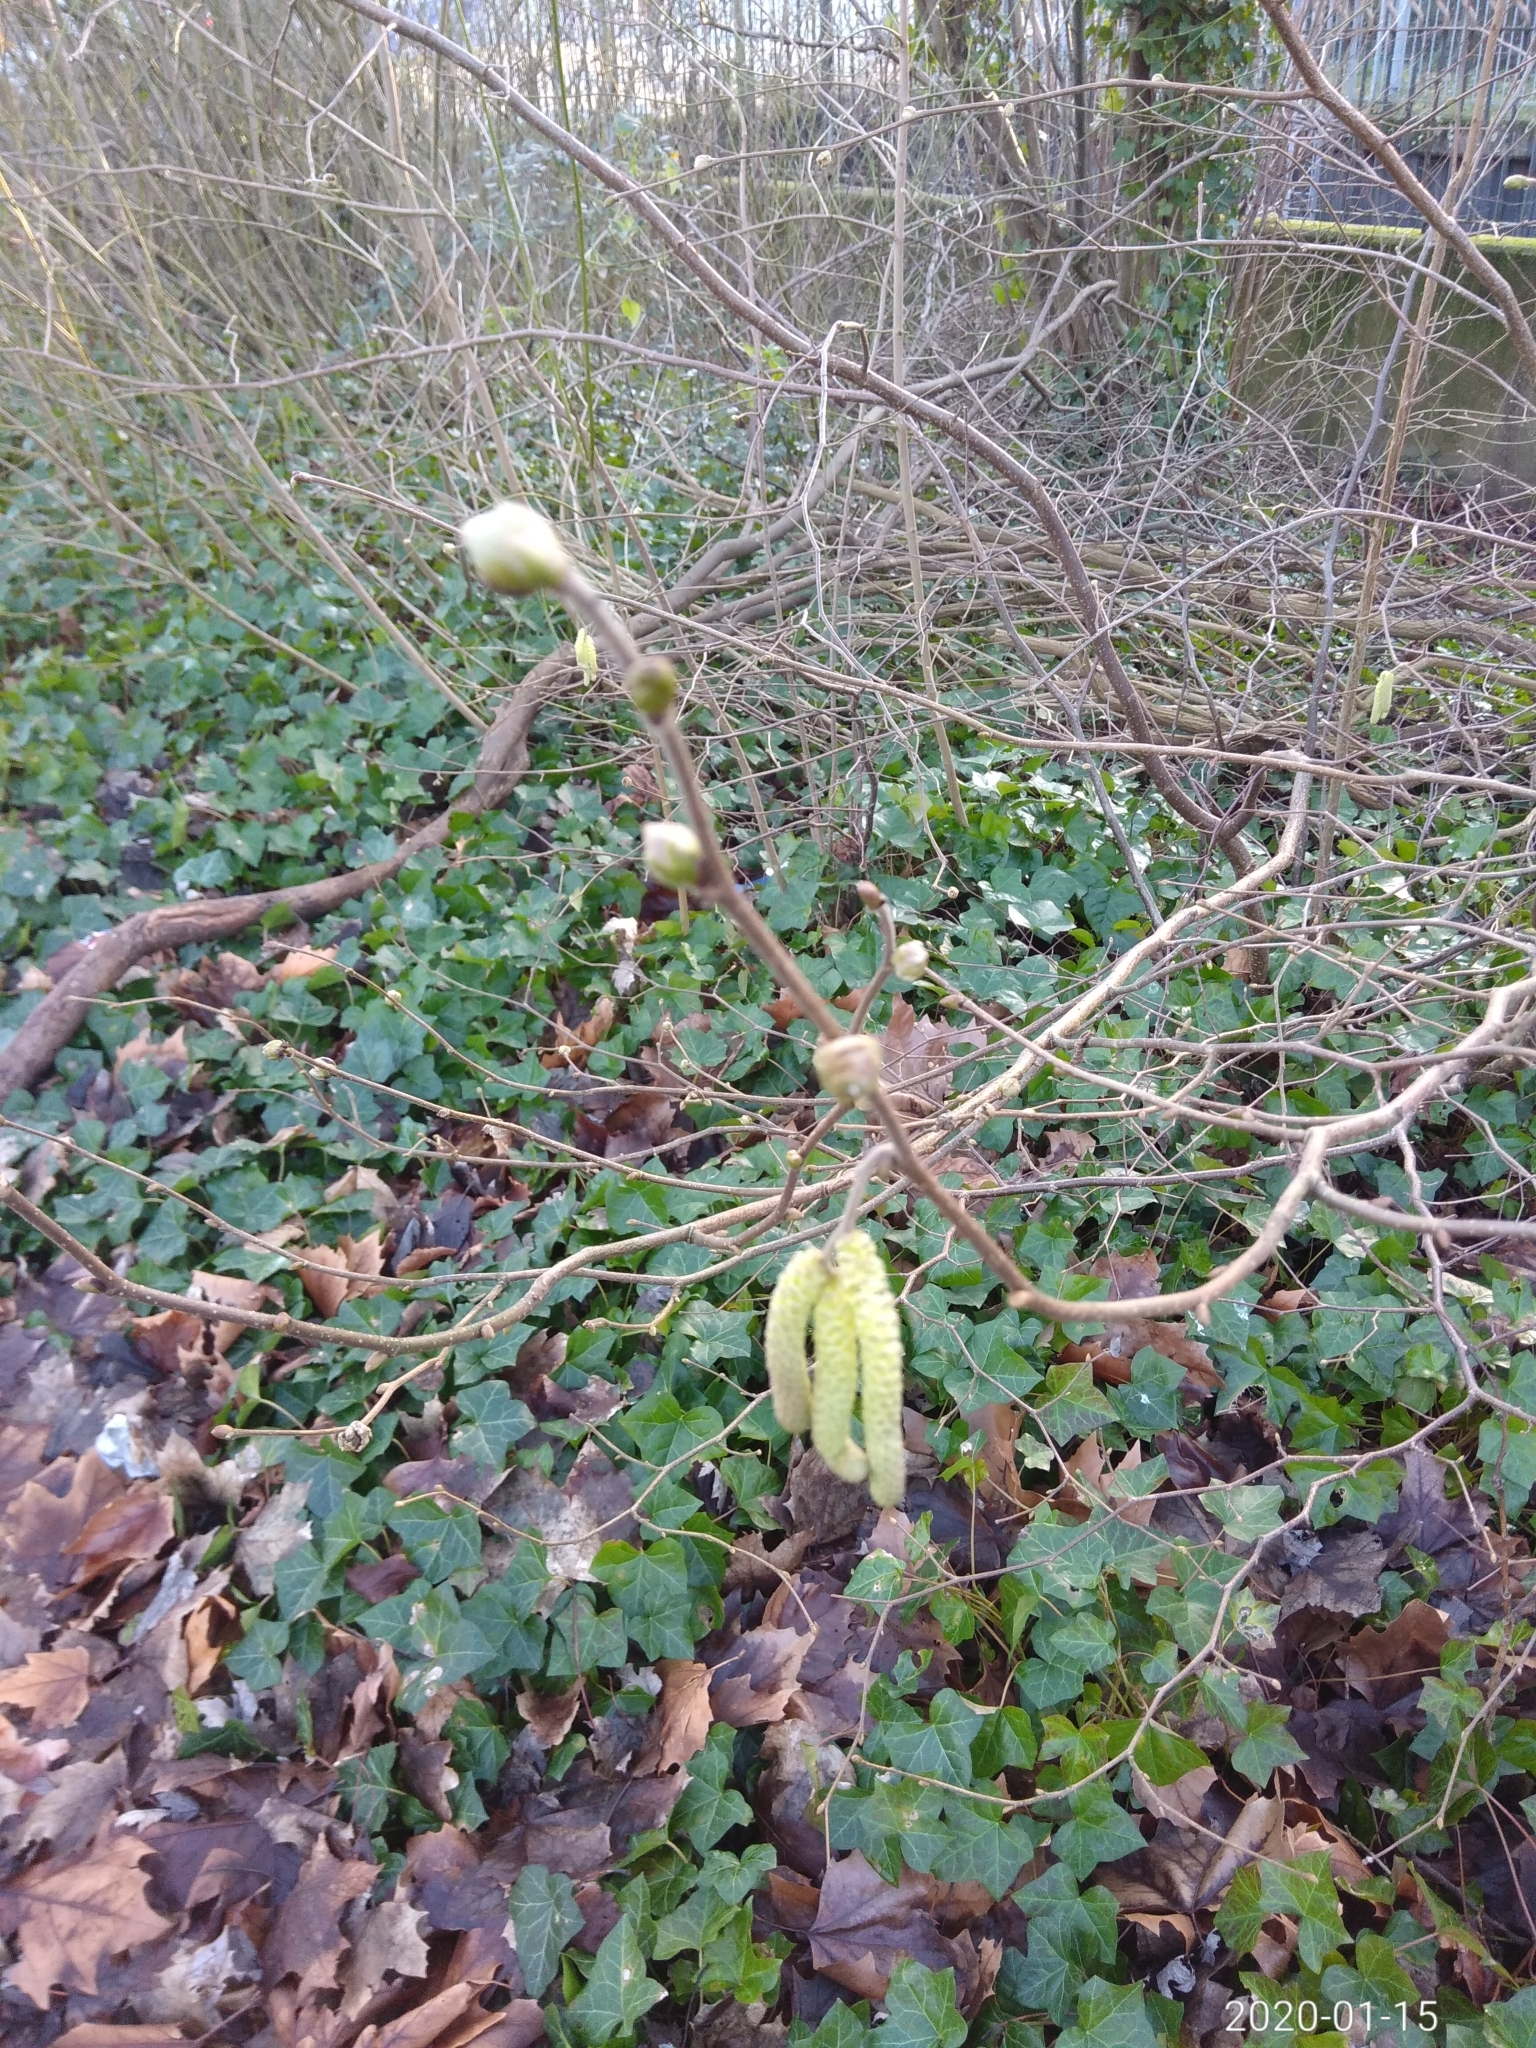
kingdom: Plantae
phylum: Tracheophyta
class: Magnoliopsida
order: Fagales
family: Betulaceae
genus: Corylus
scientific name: Corylus avellana
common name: European hazel
